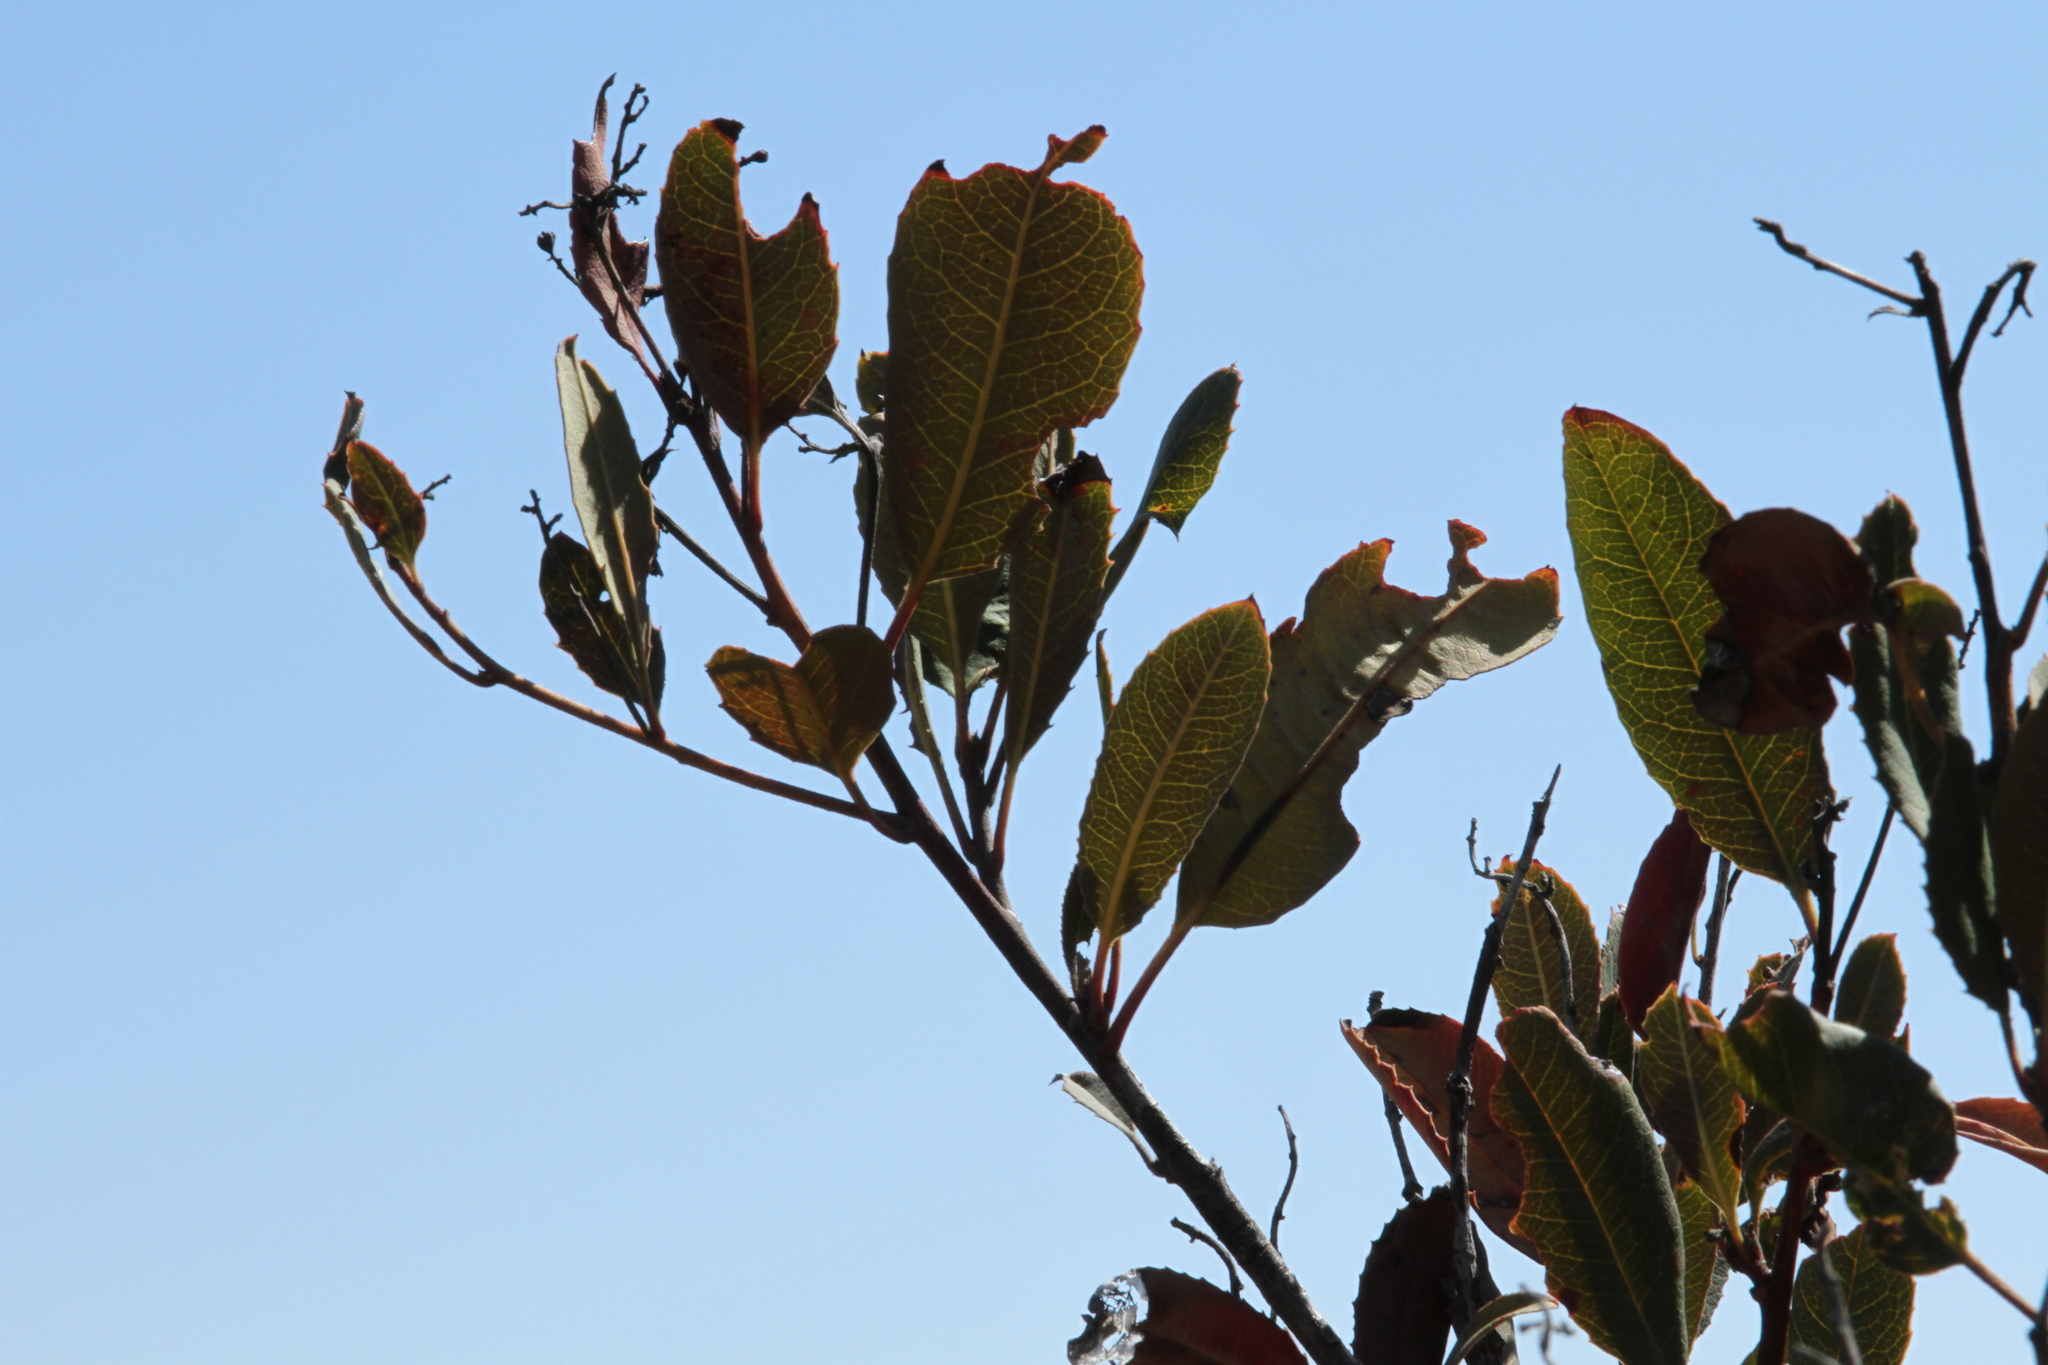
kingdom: Plantae
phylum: Tracheophyta
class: Magnoliopsida
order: Rosales
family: Rosaceae
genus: Heteromeles
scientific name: Heteromeles arbutifolia
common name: California-holly
